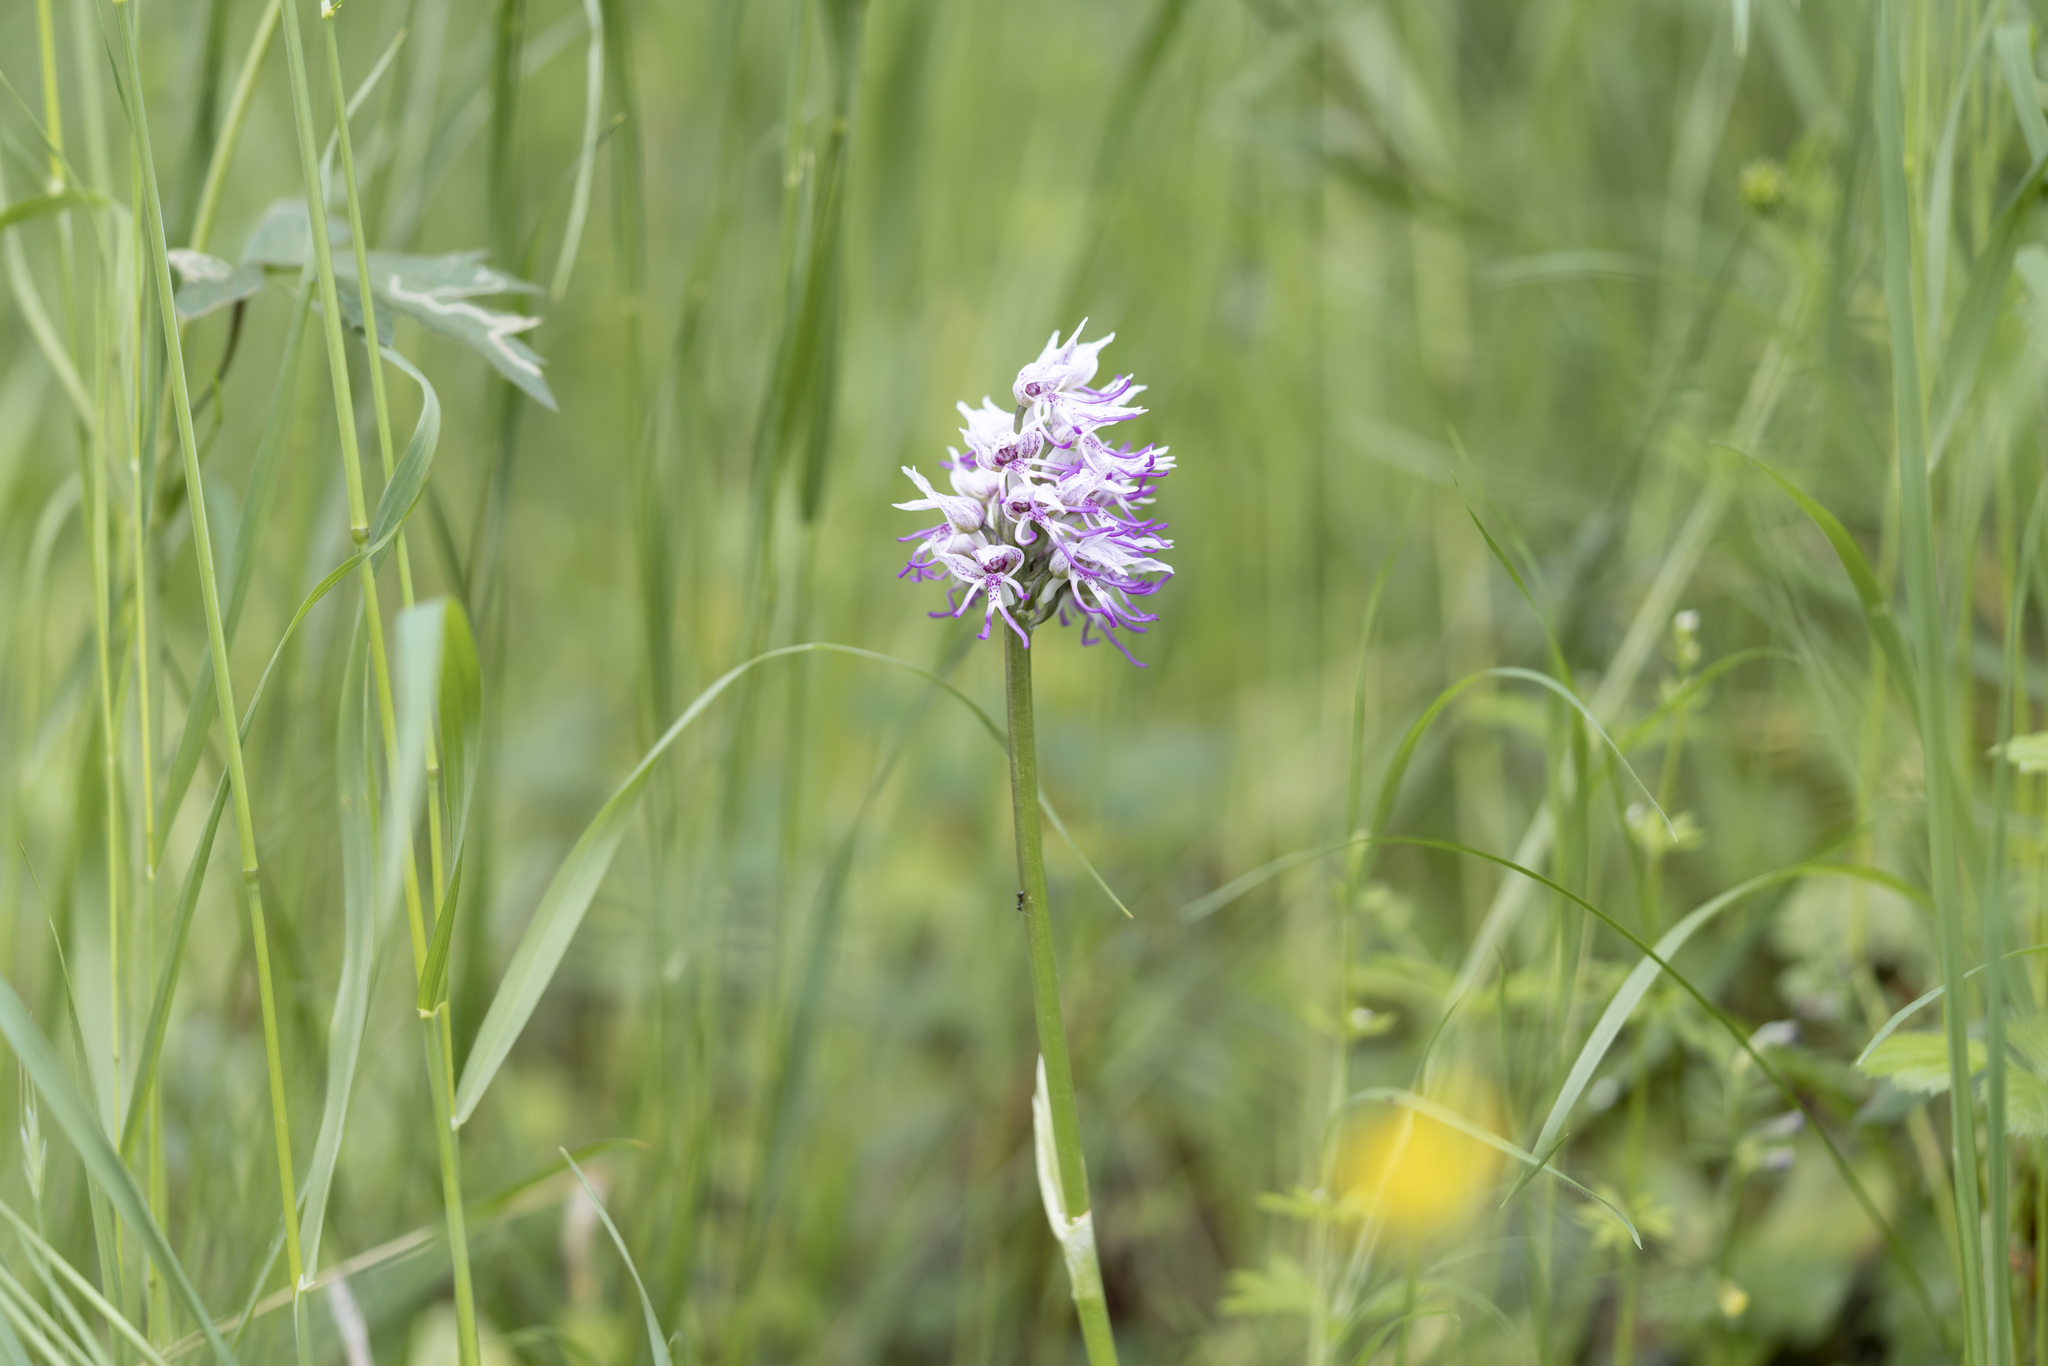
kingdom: Plantae
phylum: Tracheophyta
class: Liliopsida
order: Asparagales
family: Orchidaceae
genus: Orchis
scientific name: Orchis simia
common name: Monkey orchid
